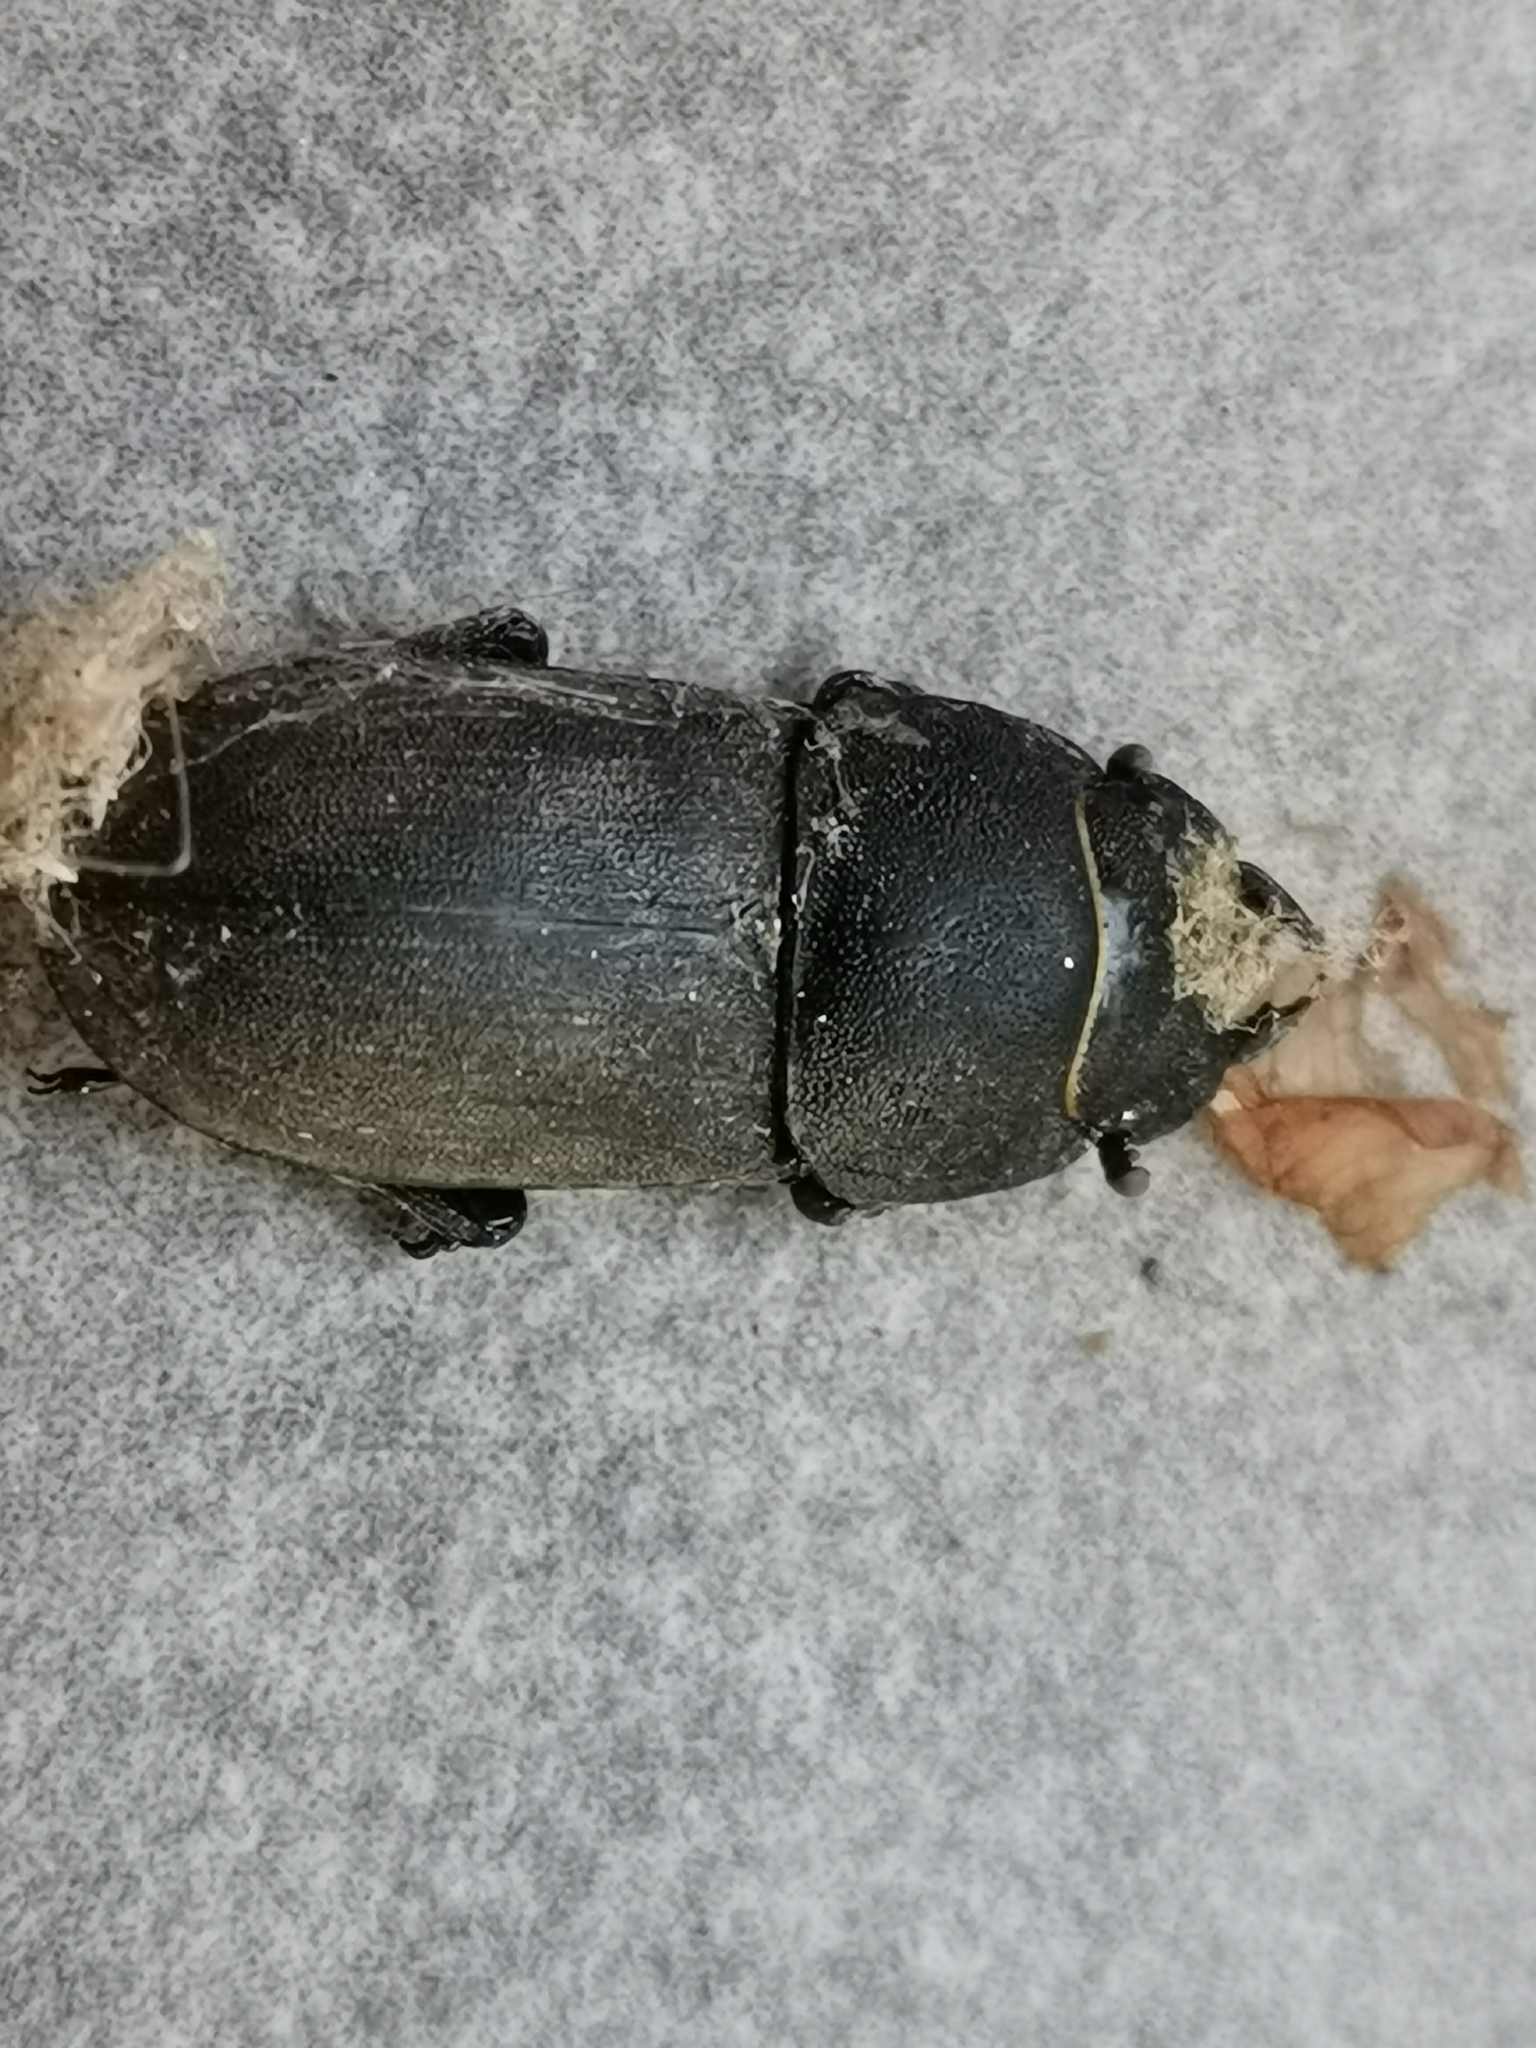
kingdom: Animalia
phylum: Arthropoda
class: Insecta
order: Coleoptera
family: Lucanidae
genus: Dorcus
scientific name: Dorcus parallelipipedus
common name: Lesser stag beetle
